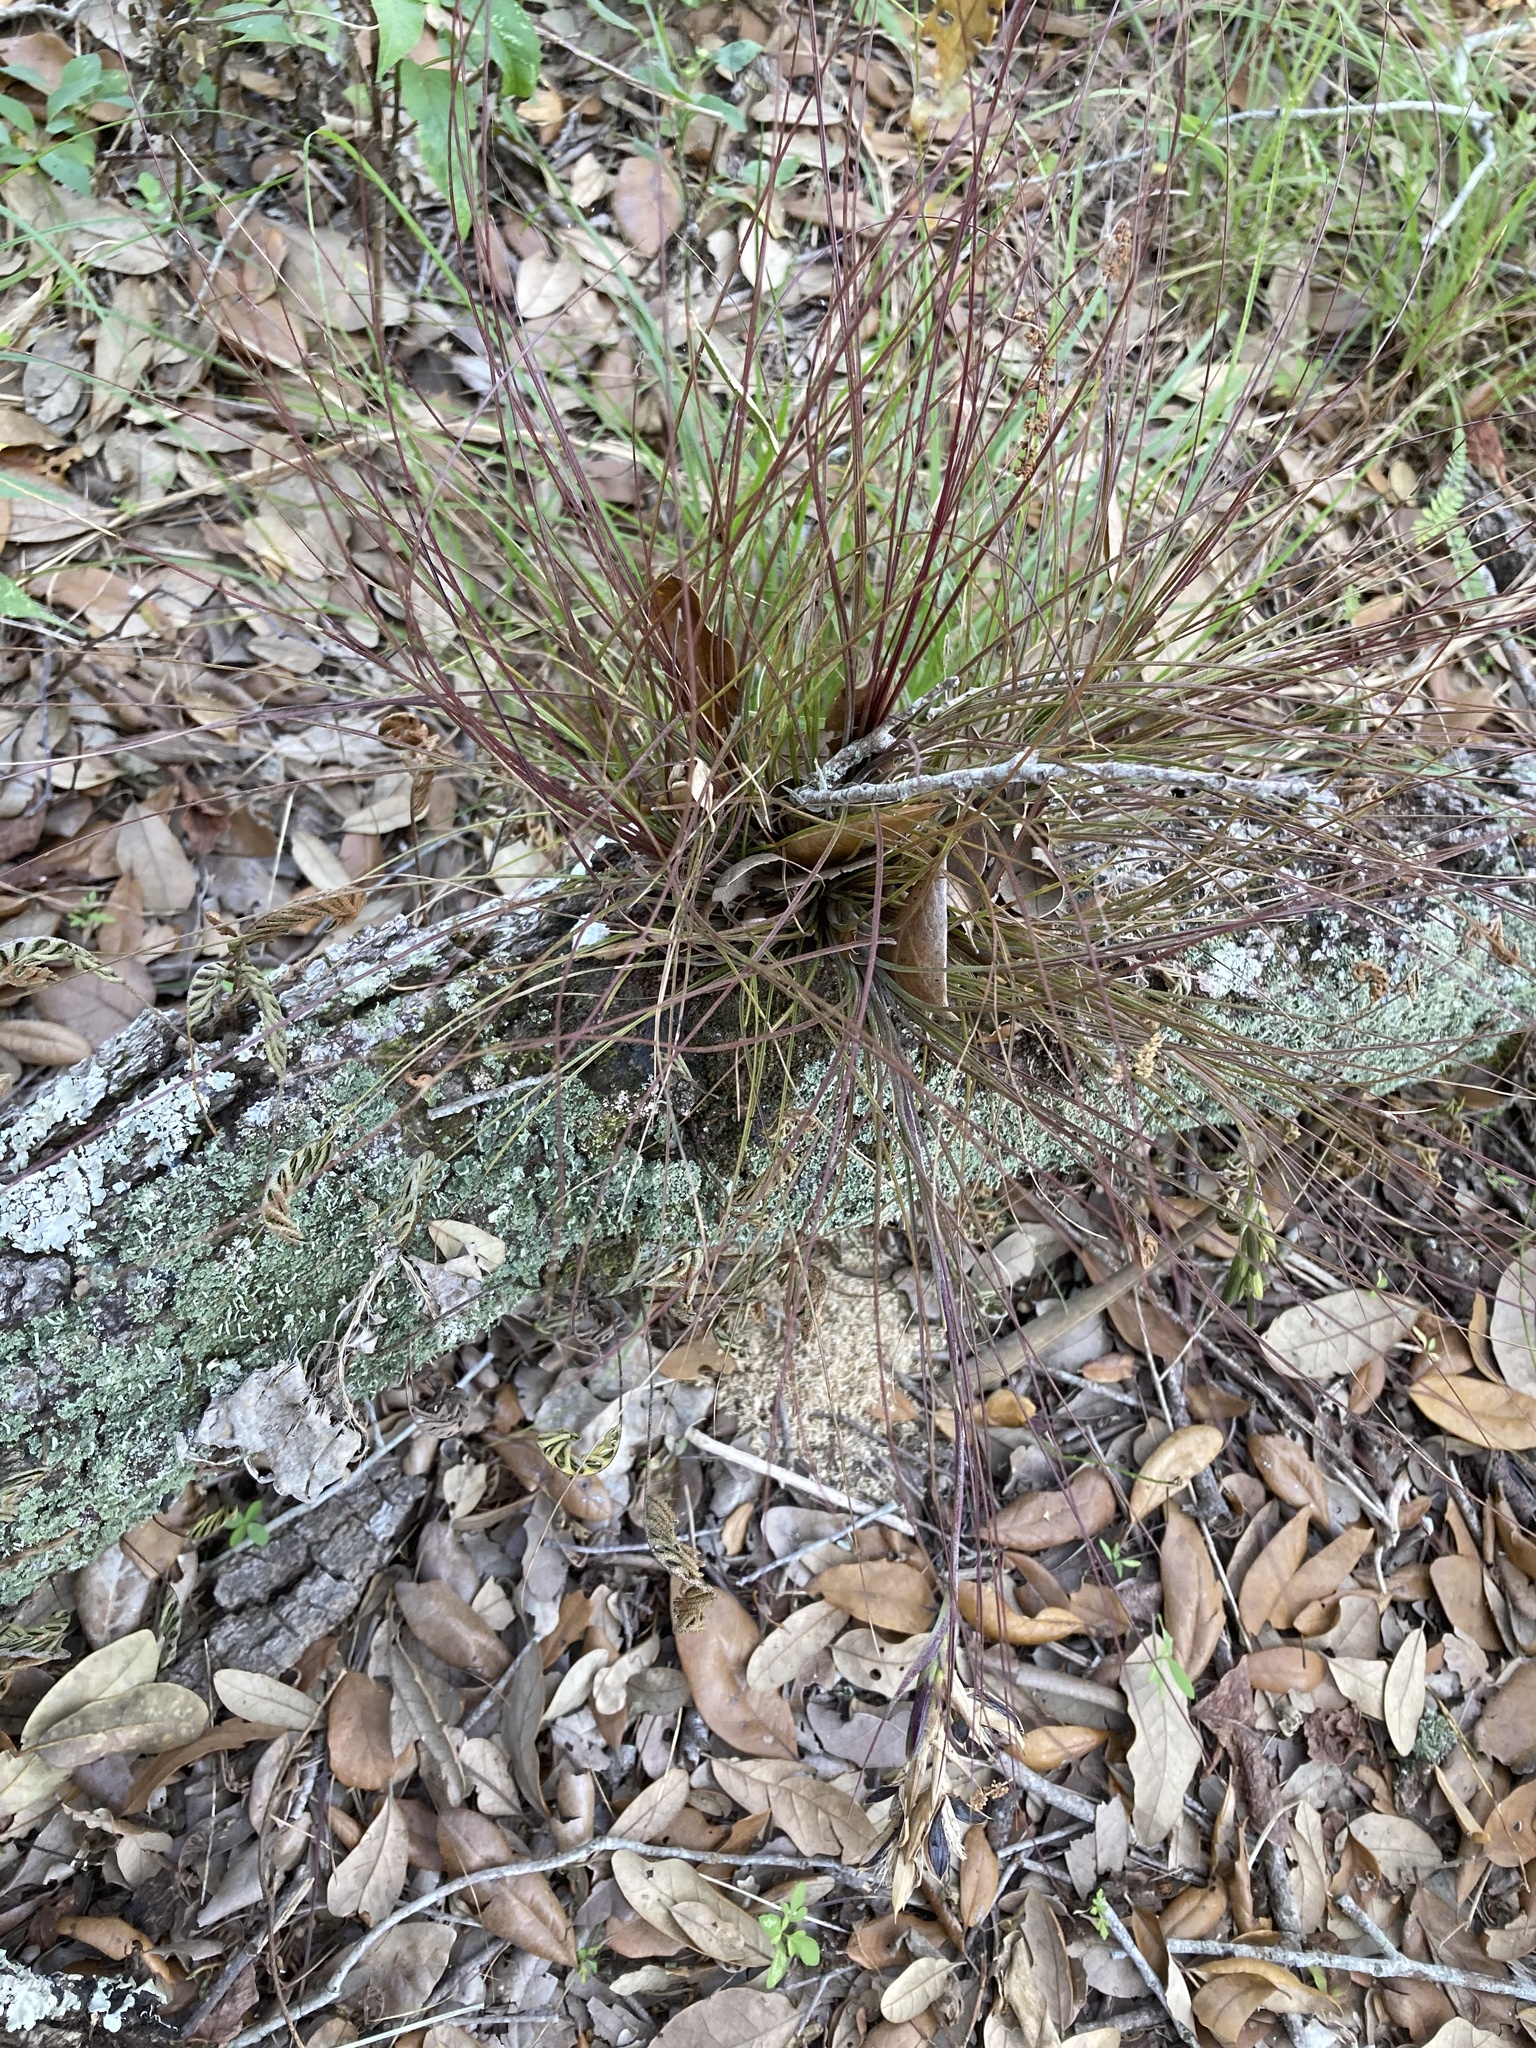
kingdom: Plantae
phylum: Tracheophyta
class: Liliopsida
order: Poales
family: Bromeliaceae
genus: Tillandsia
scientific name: Tillandsia setacea
